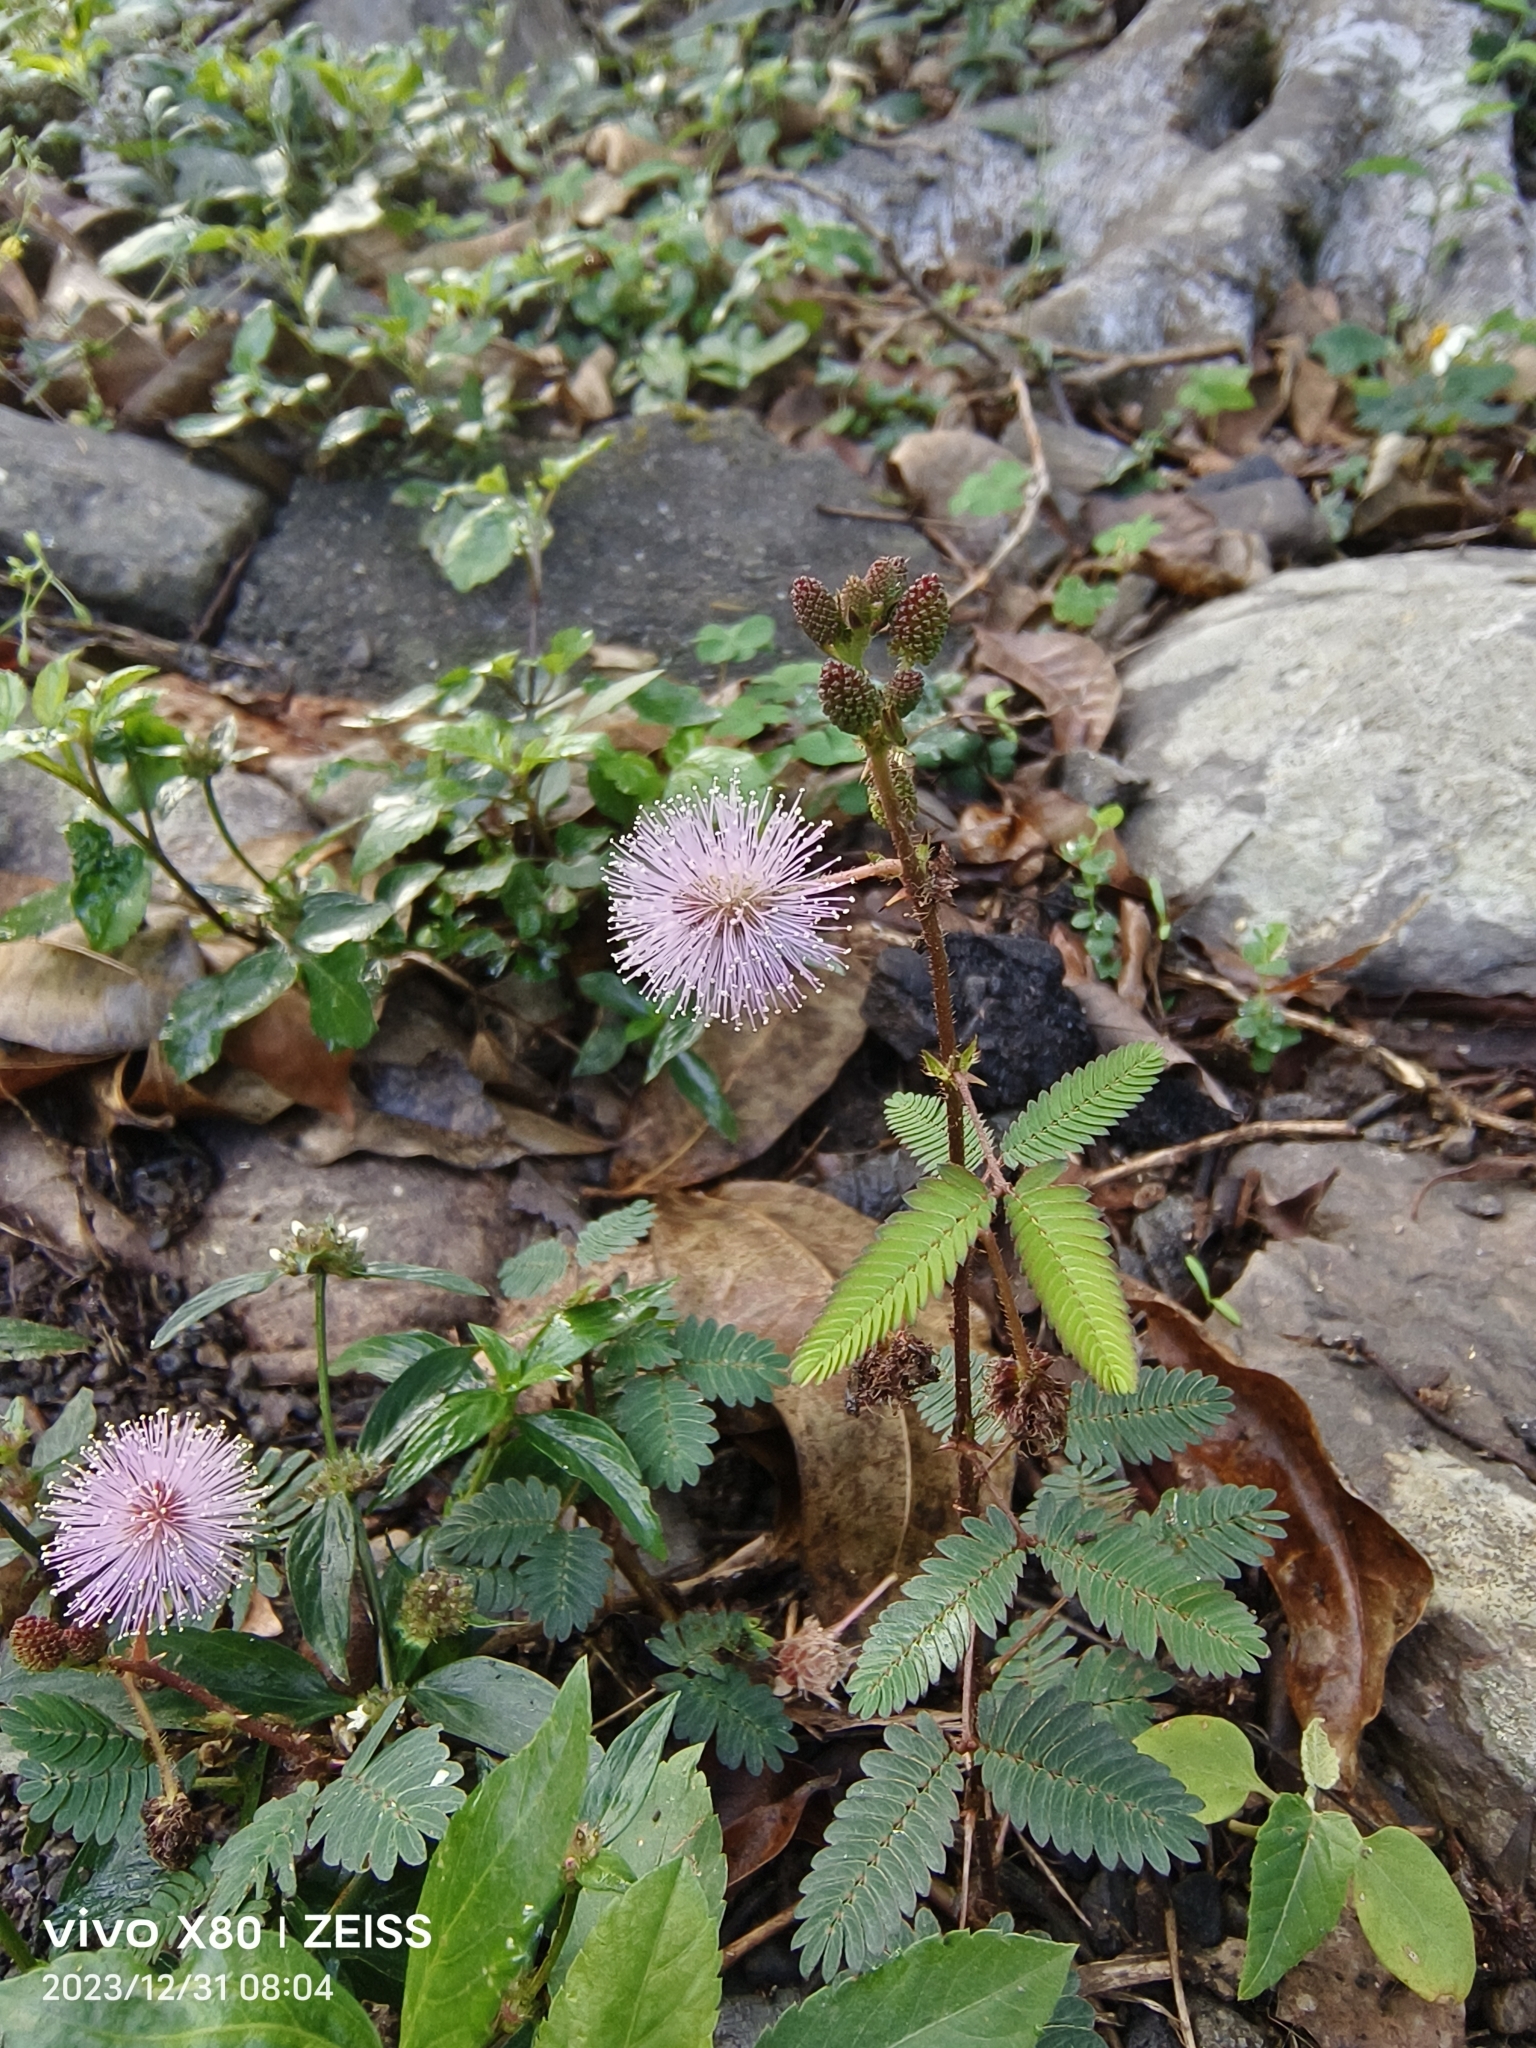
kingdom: Plantae
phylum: Tracheophyta
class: Magnoliopsida
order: Fabales
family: Fabaceae
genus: Mimosa
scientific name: Mimosa pudica
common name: Sensitive plant
